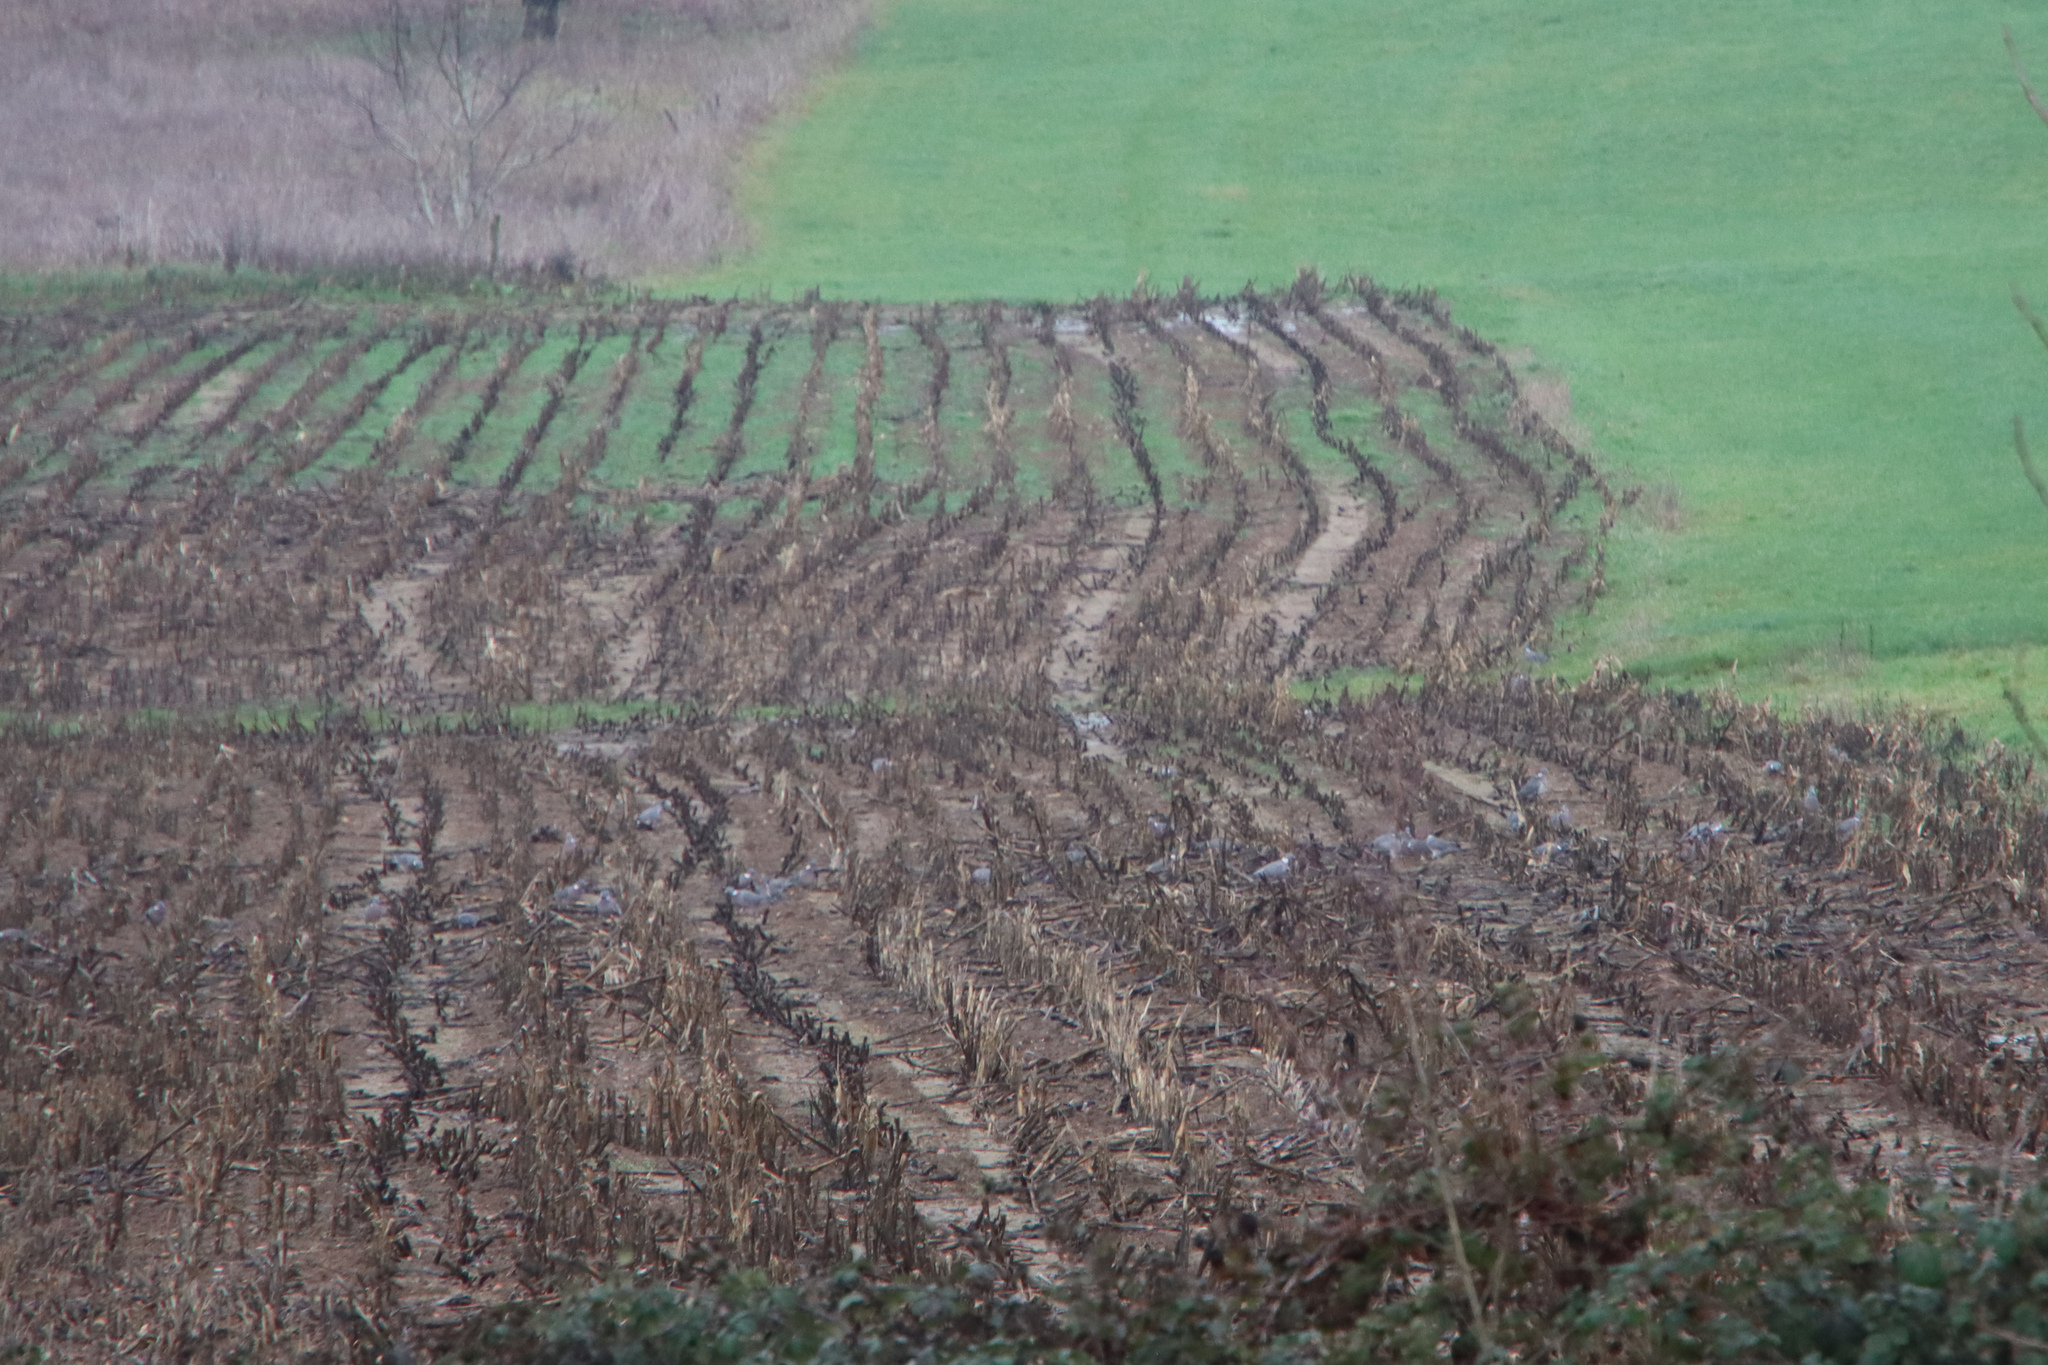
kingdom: Animalia
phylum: Chordata
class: Aves
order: Columbiformes
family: Columbidae
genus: Columba
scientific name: Columba palumbus
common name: Common wood pigeon
